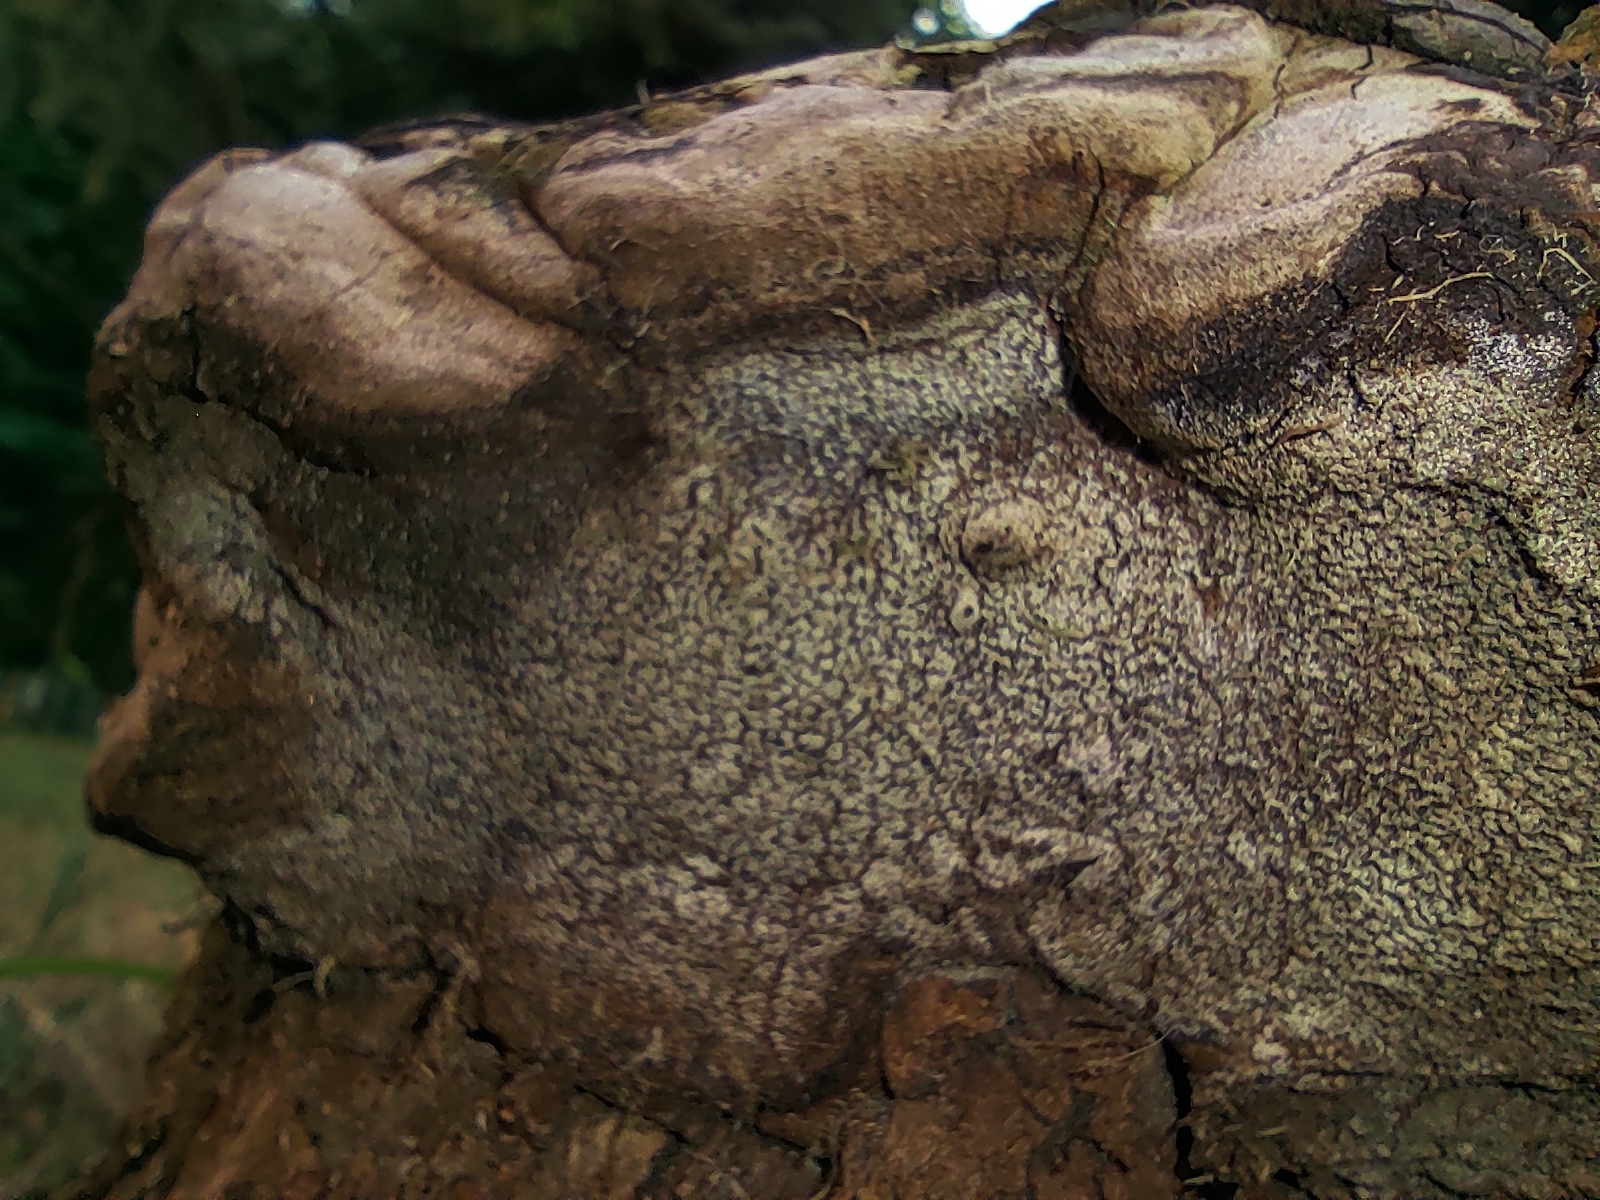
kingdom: Fungi
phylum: Basidiomycota
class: Agaricomycetes
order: Polyporales
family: Polyporaceae
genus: Fomes
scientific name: Fomes fomentarius
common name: Hoof fungus
